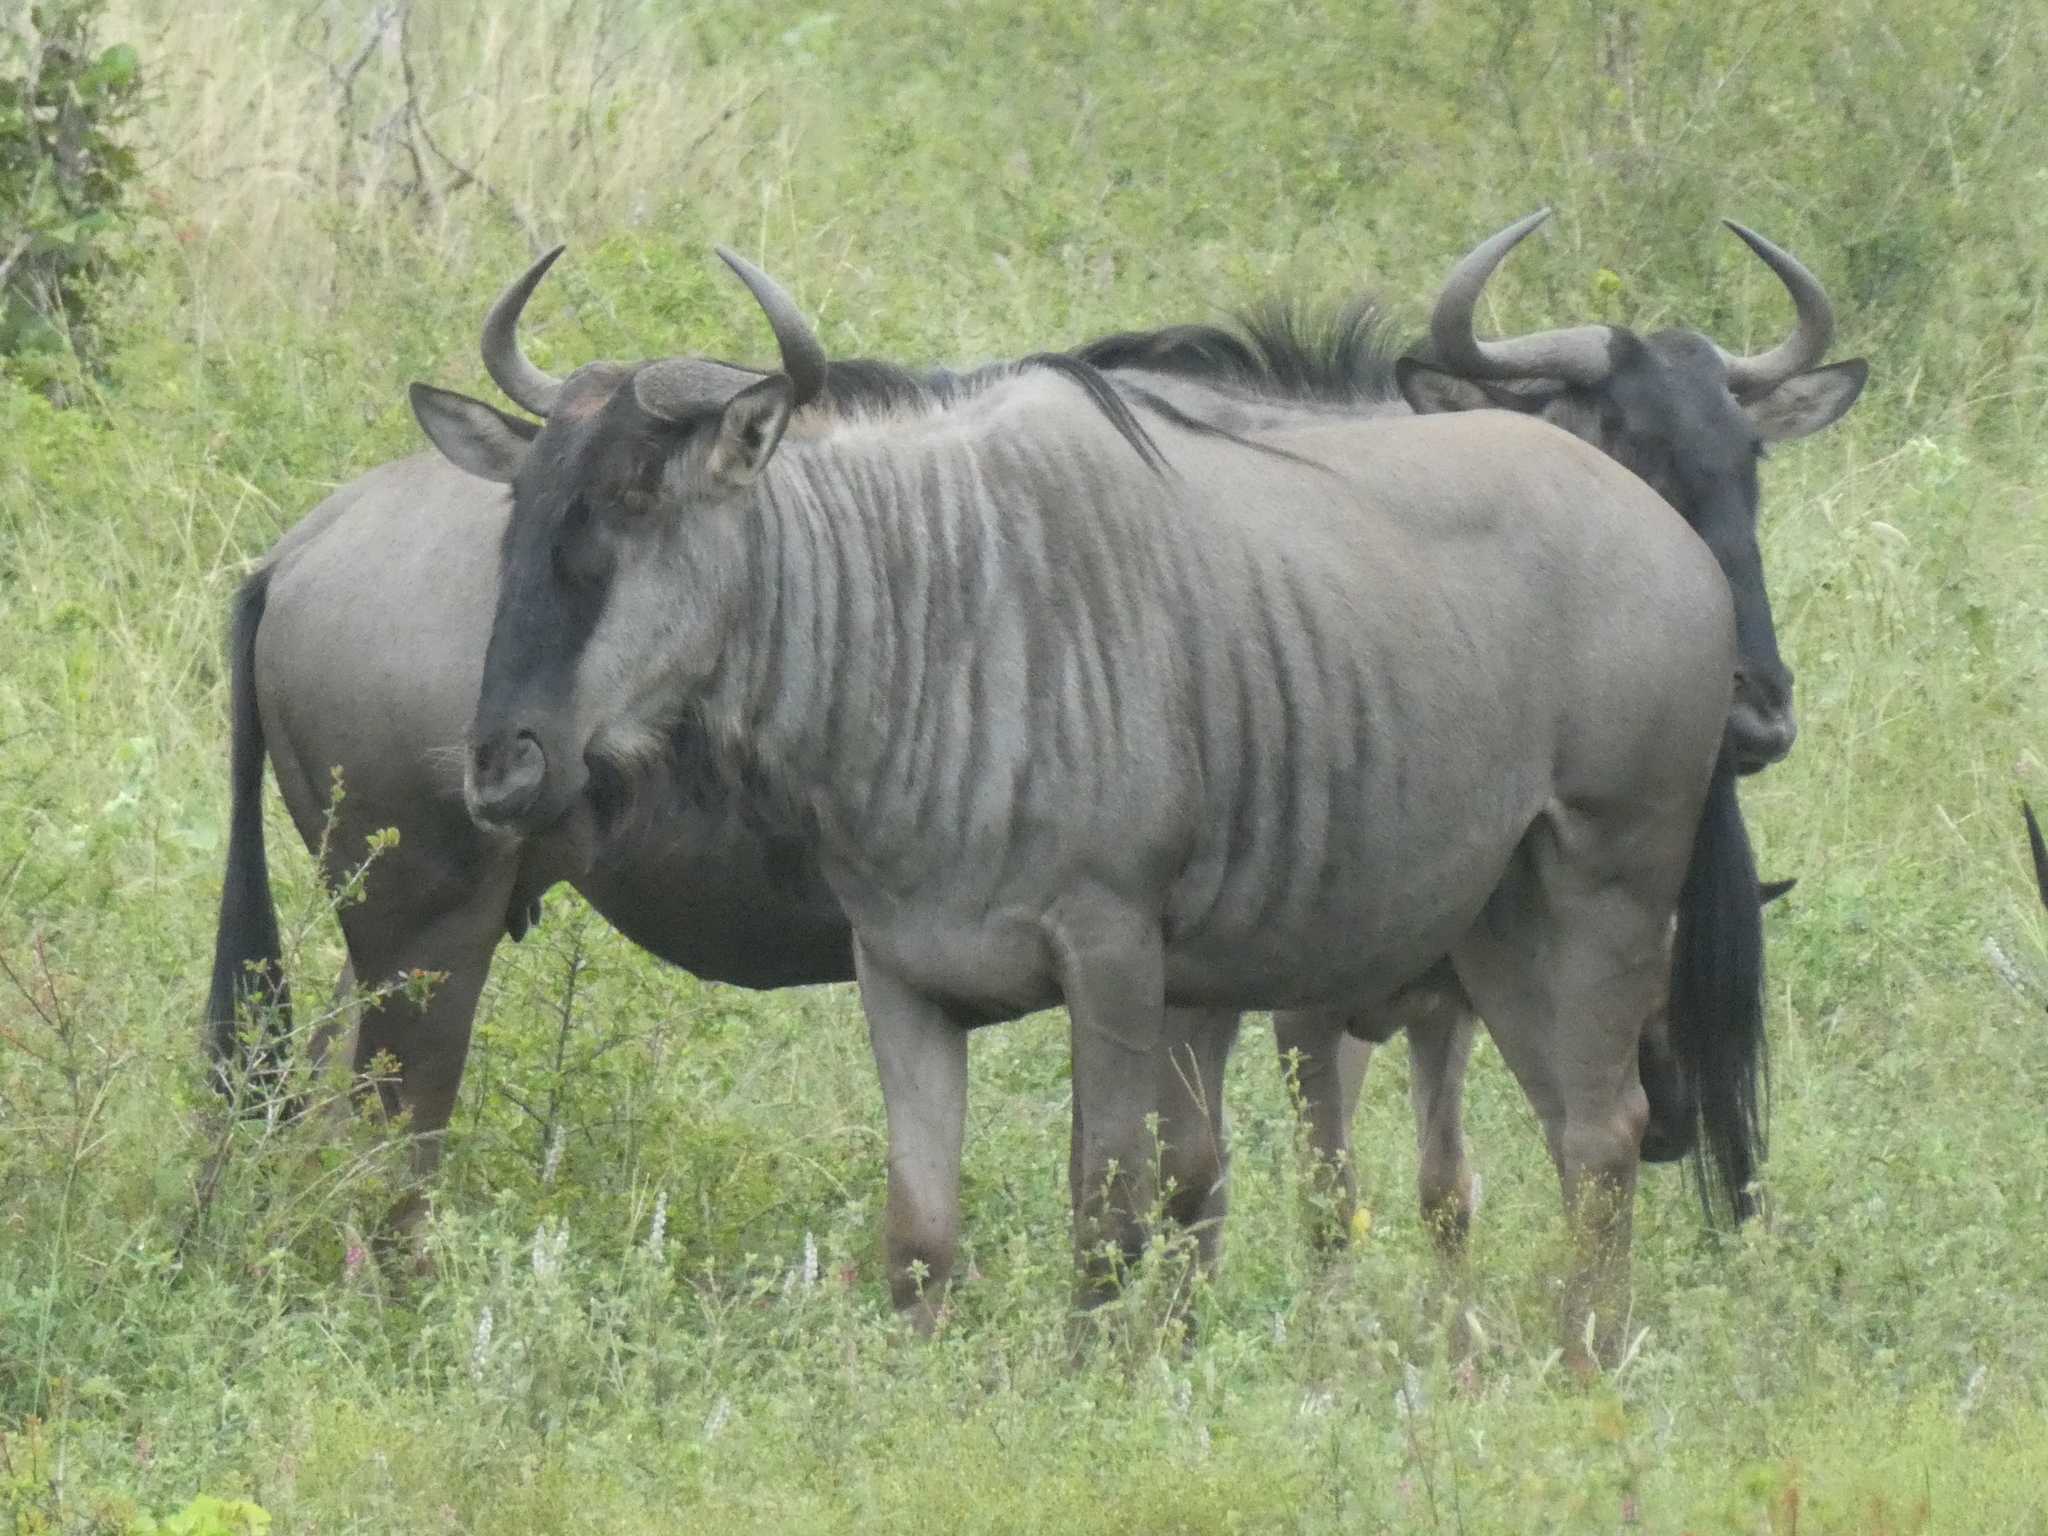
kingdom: Animalia
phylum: Chordata
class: Mammalia
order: Artiodactyla
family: Bovidae
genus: Connochaetes
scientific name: Connochaetes taurinus
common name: Blue wildebeest
